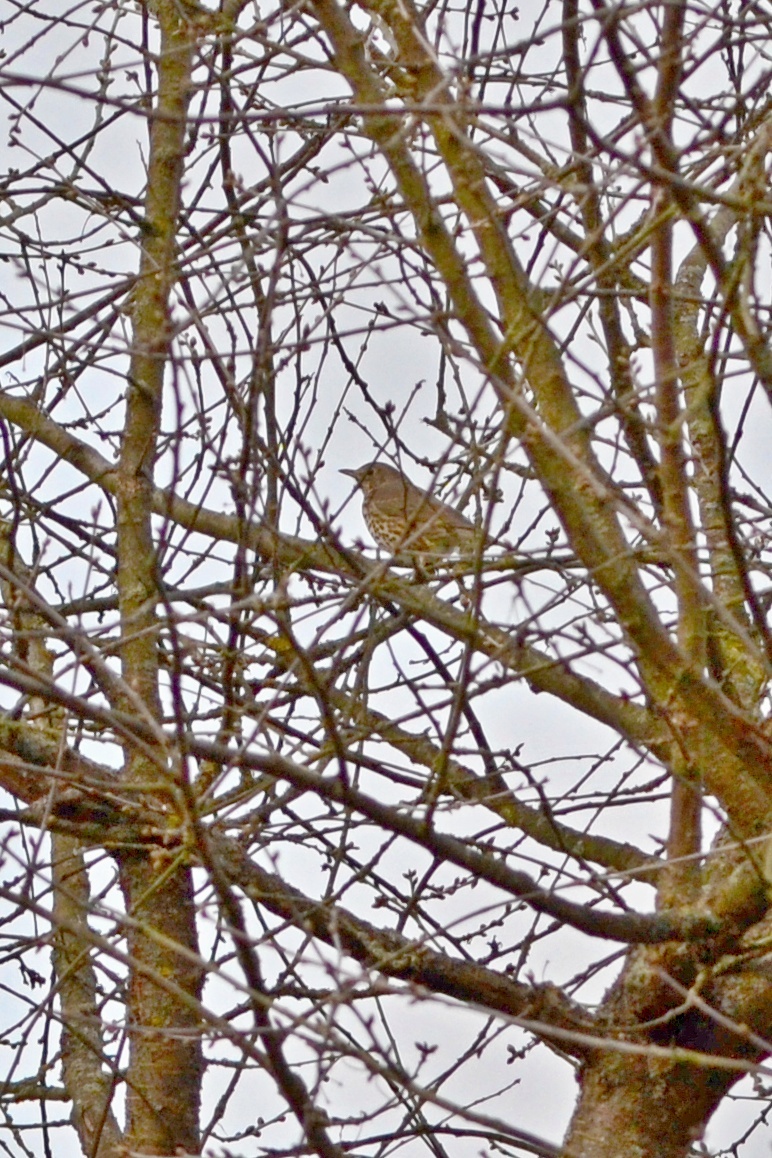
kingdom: Animalia
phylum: Chordata
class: Aves
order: Passeriformes
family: Turdidae
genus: Turdus
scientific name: Turdus philomelos
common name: Song thrush
